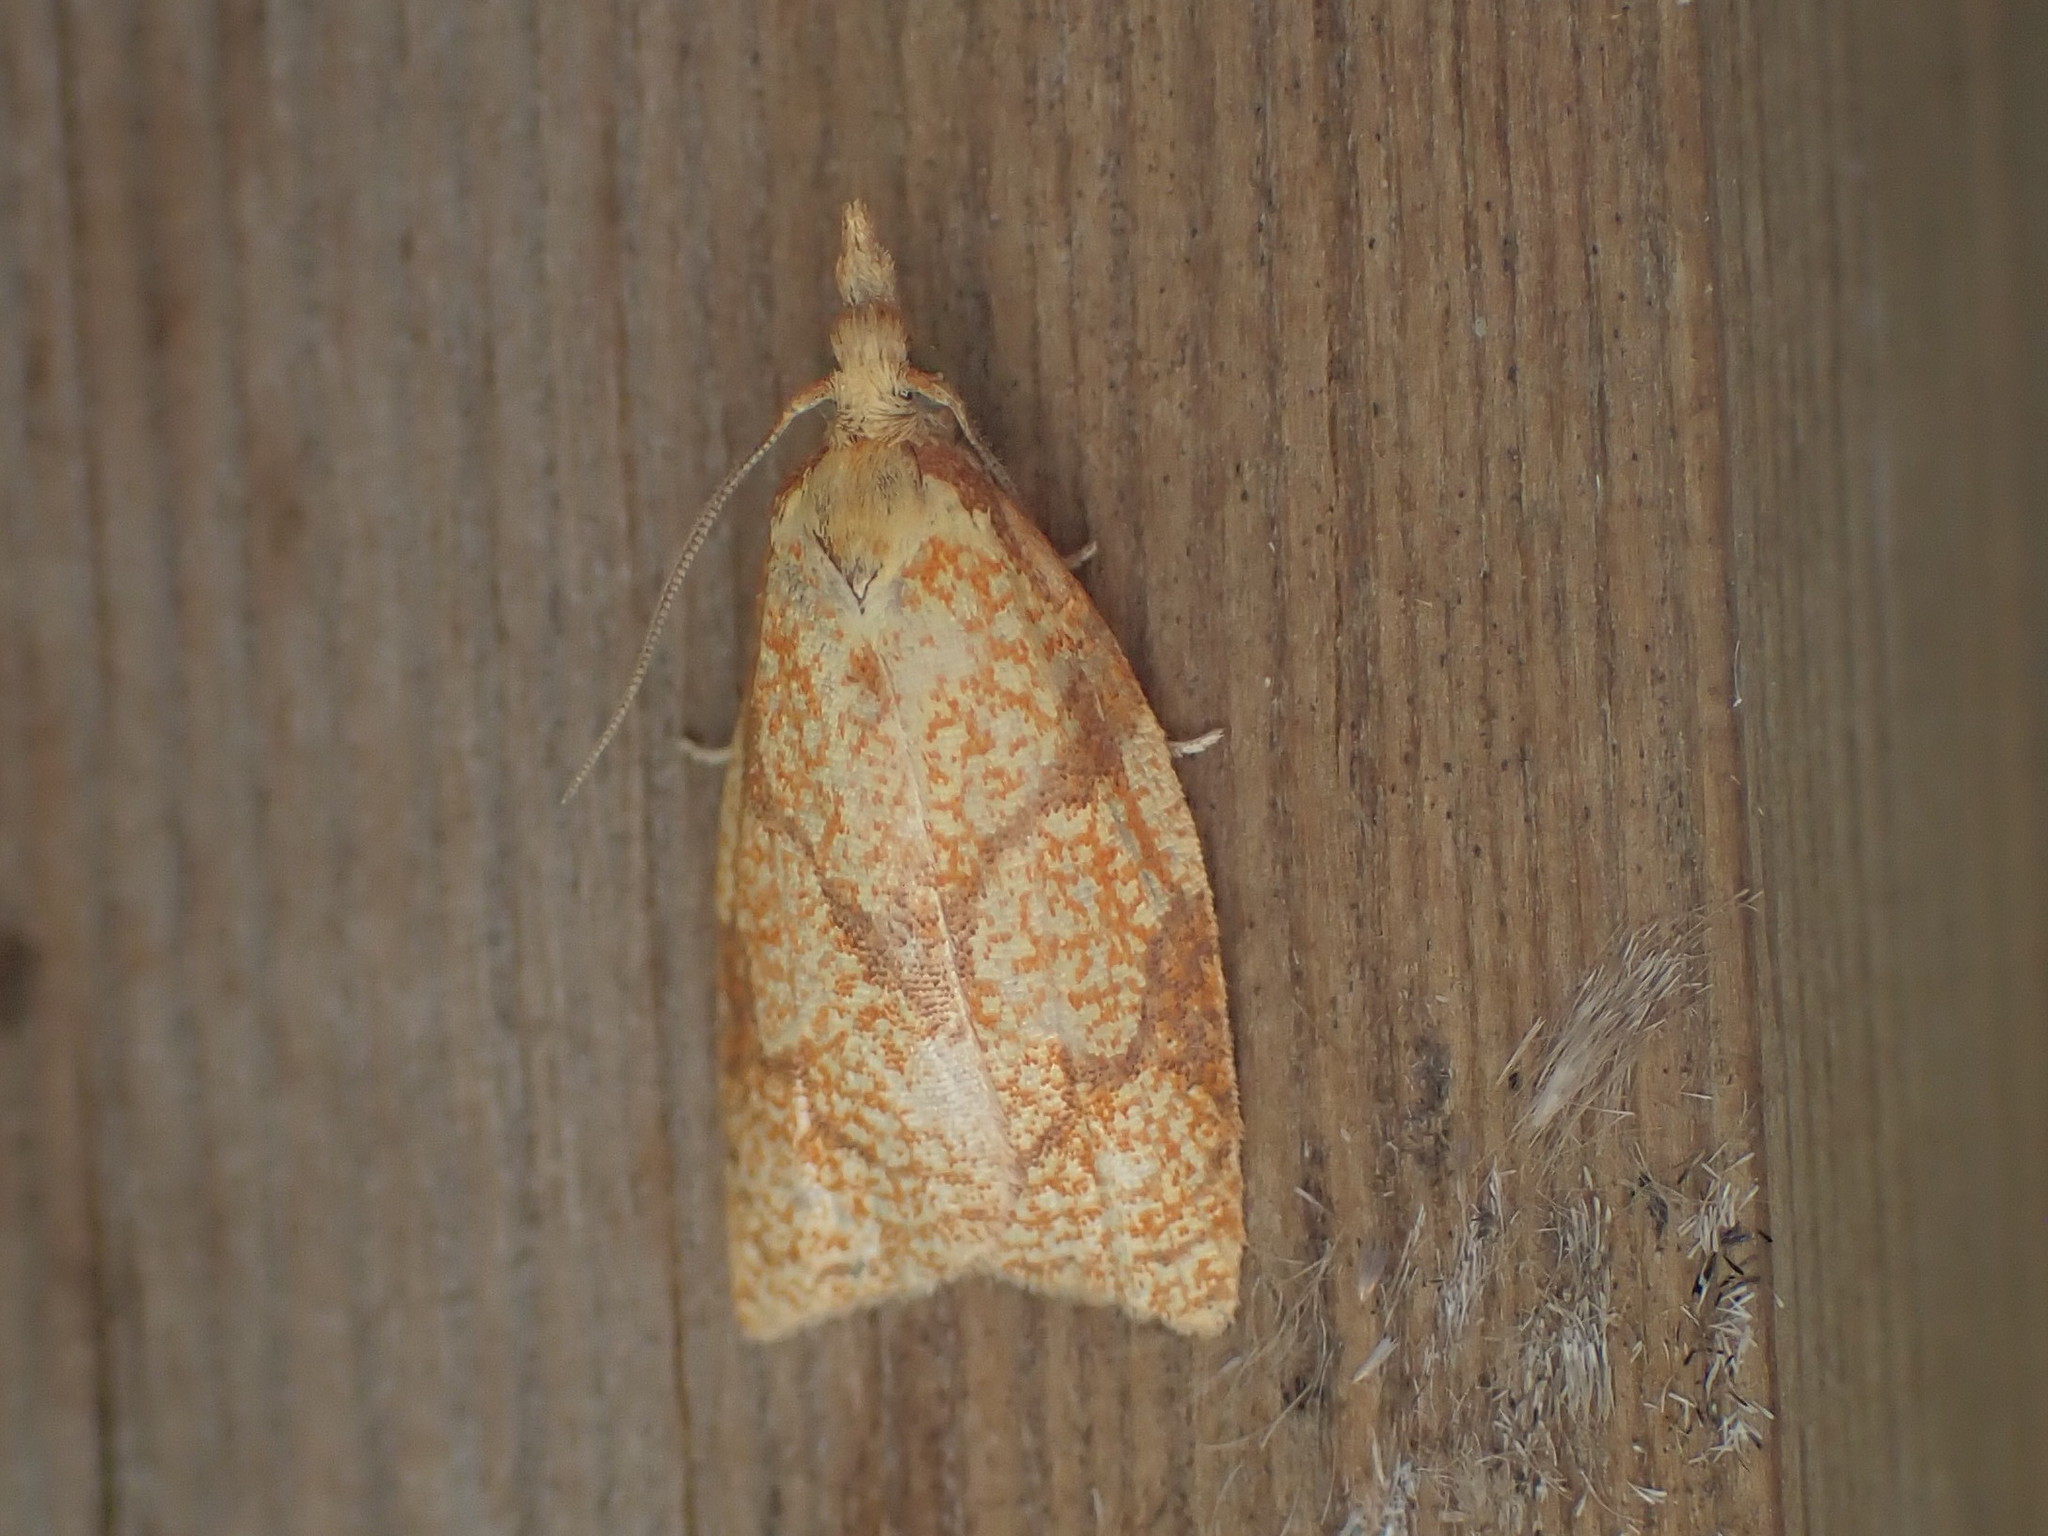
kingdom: Animalia
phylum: Arthropoda
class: Insecta
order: Lepidoptera
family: Tortricidae
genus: Cenopis
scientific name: Cenopis reticulatana
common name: Reticulated fruitworm moth
